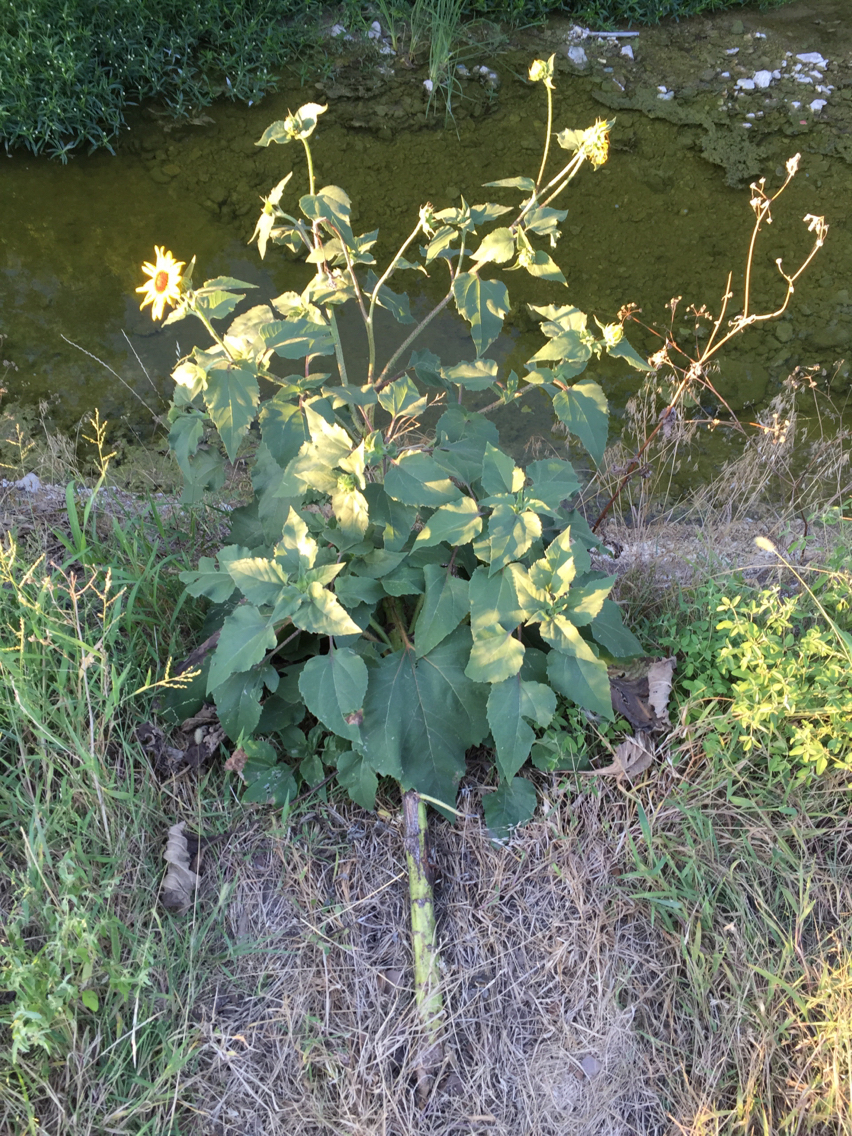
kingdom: Plantae
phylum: Tracheophyta
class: Magnoliopsida
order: Asterales
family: Asteraceae
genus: Helianthus
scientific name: Helianthus annuus
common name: Sunflower
